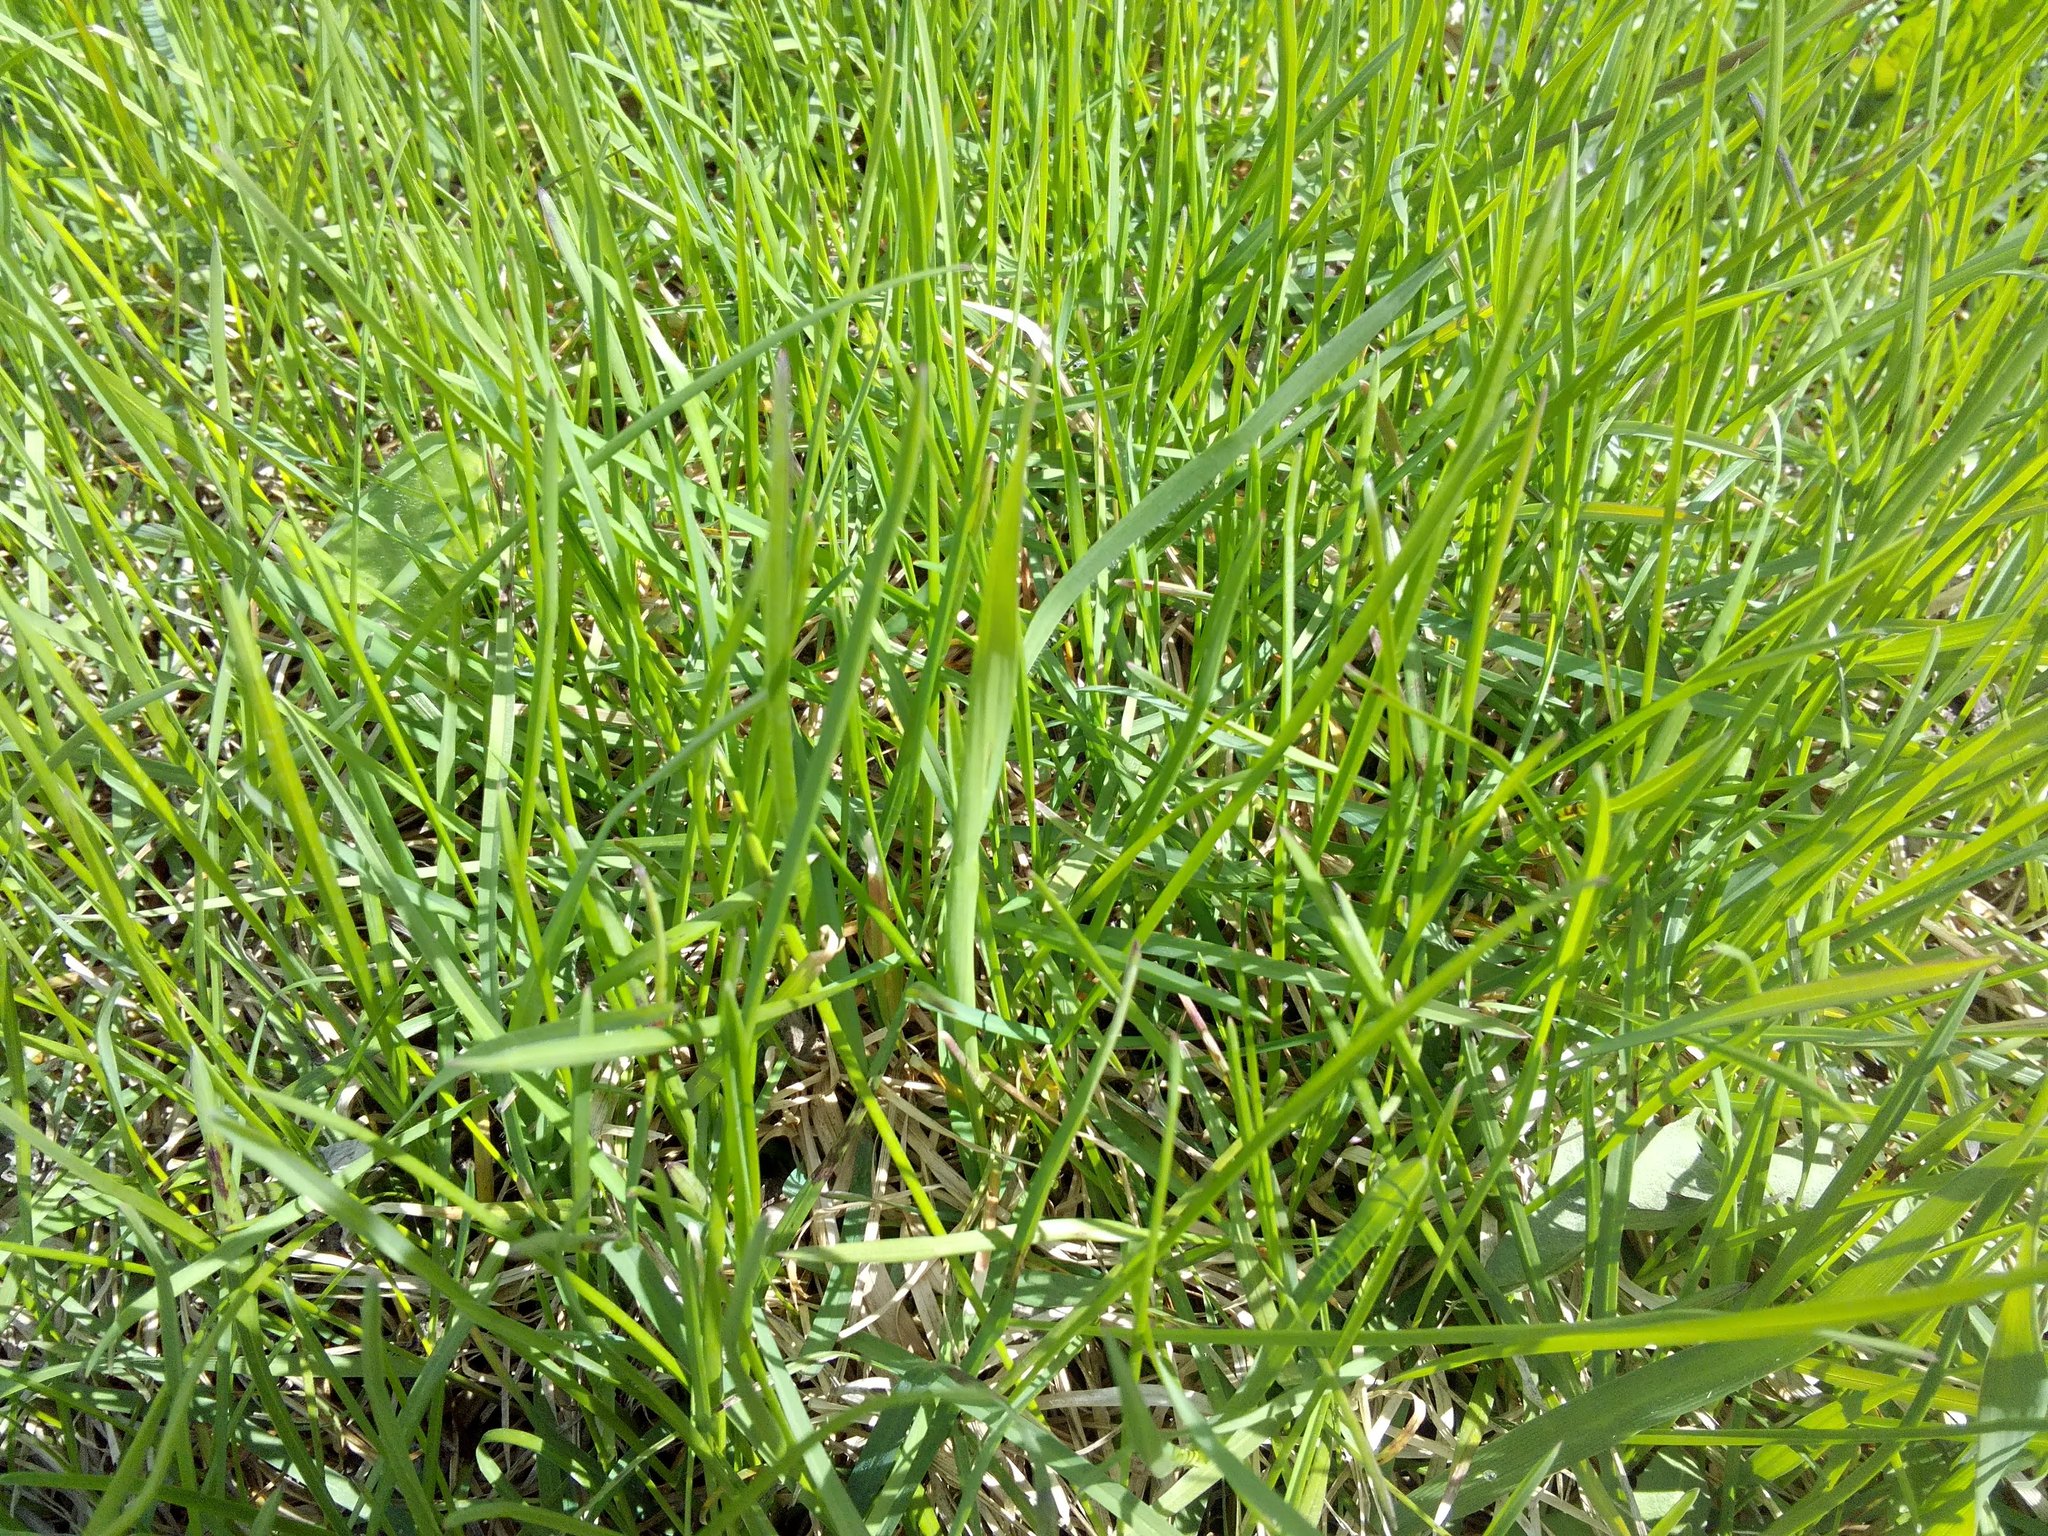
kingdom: Plantae
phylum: Tracheophyta
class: Liliopsida
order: Poales
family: Poaceae
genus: Bromus
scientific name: Bromus inermis
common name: Smooth brome
